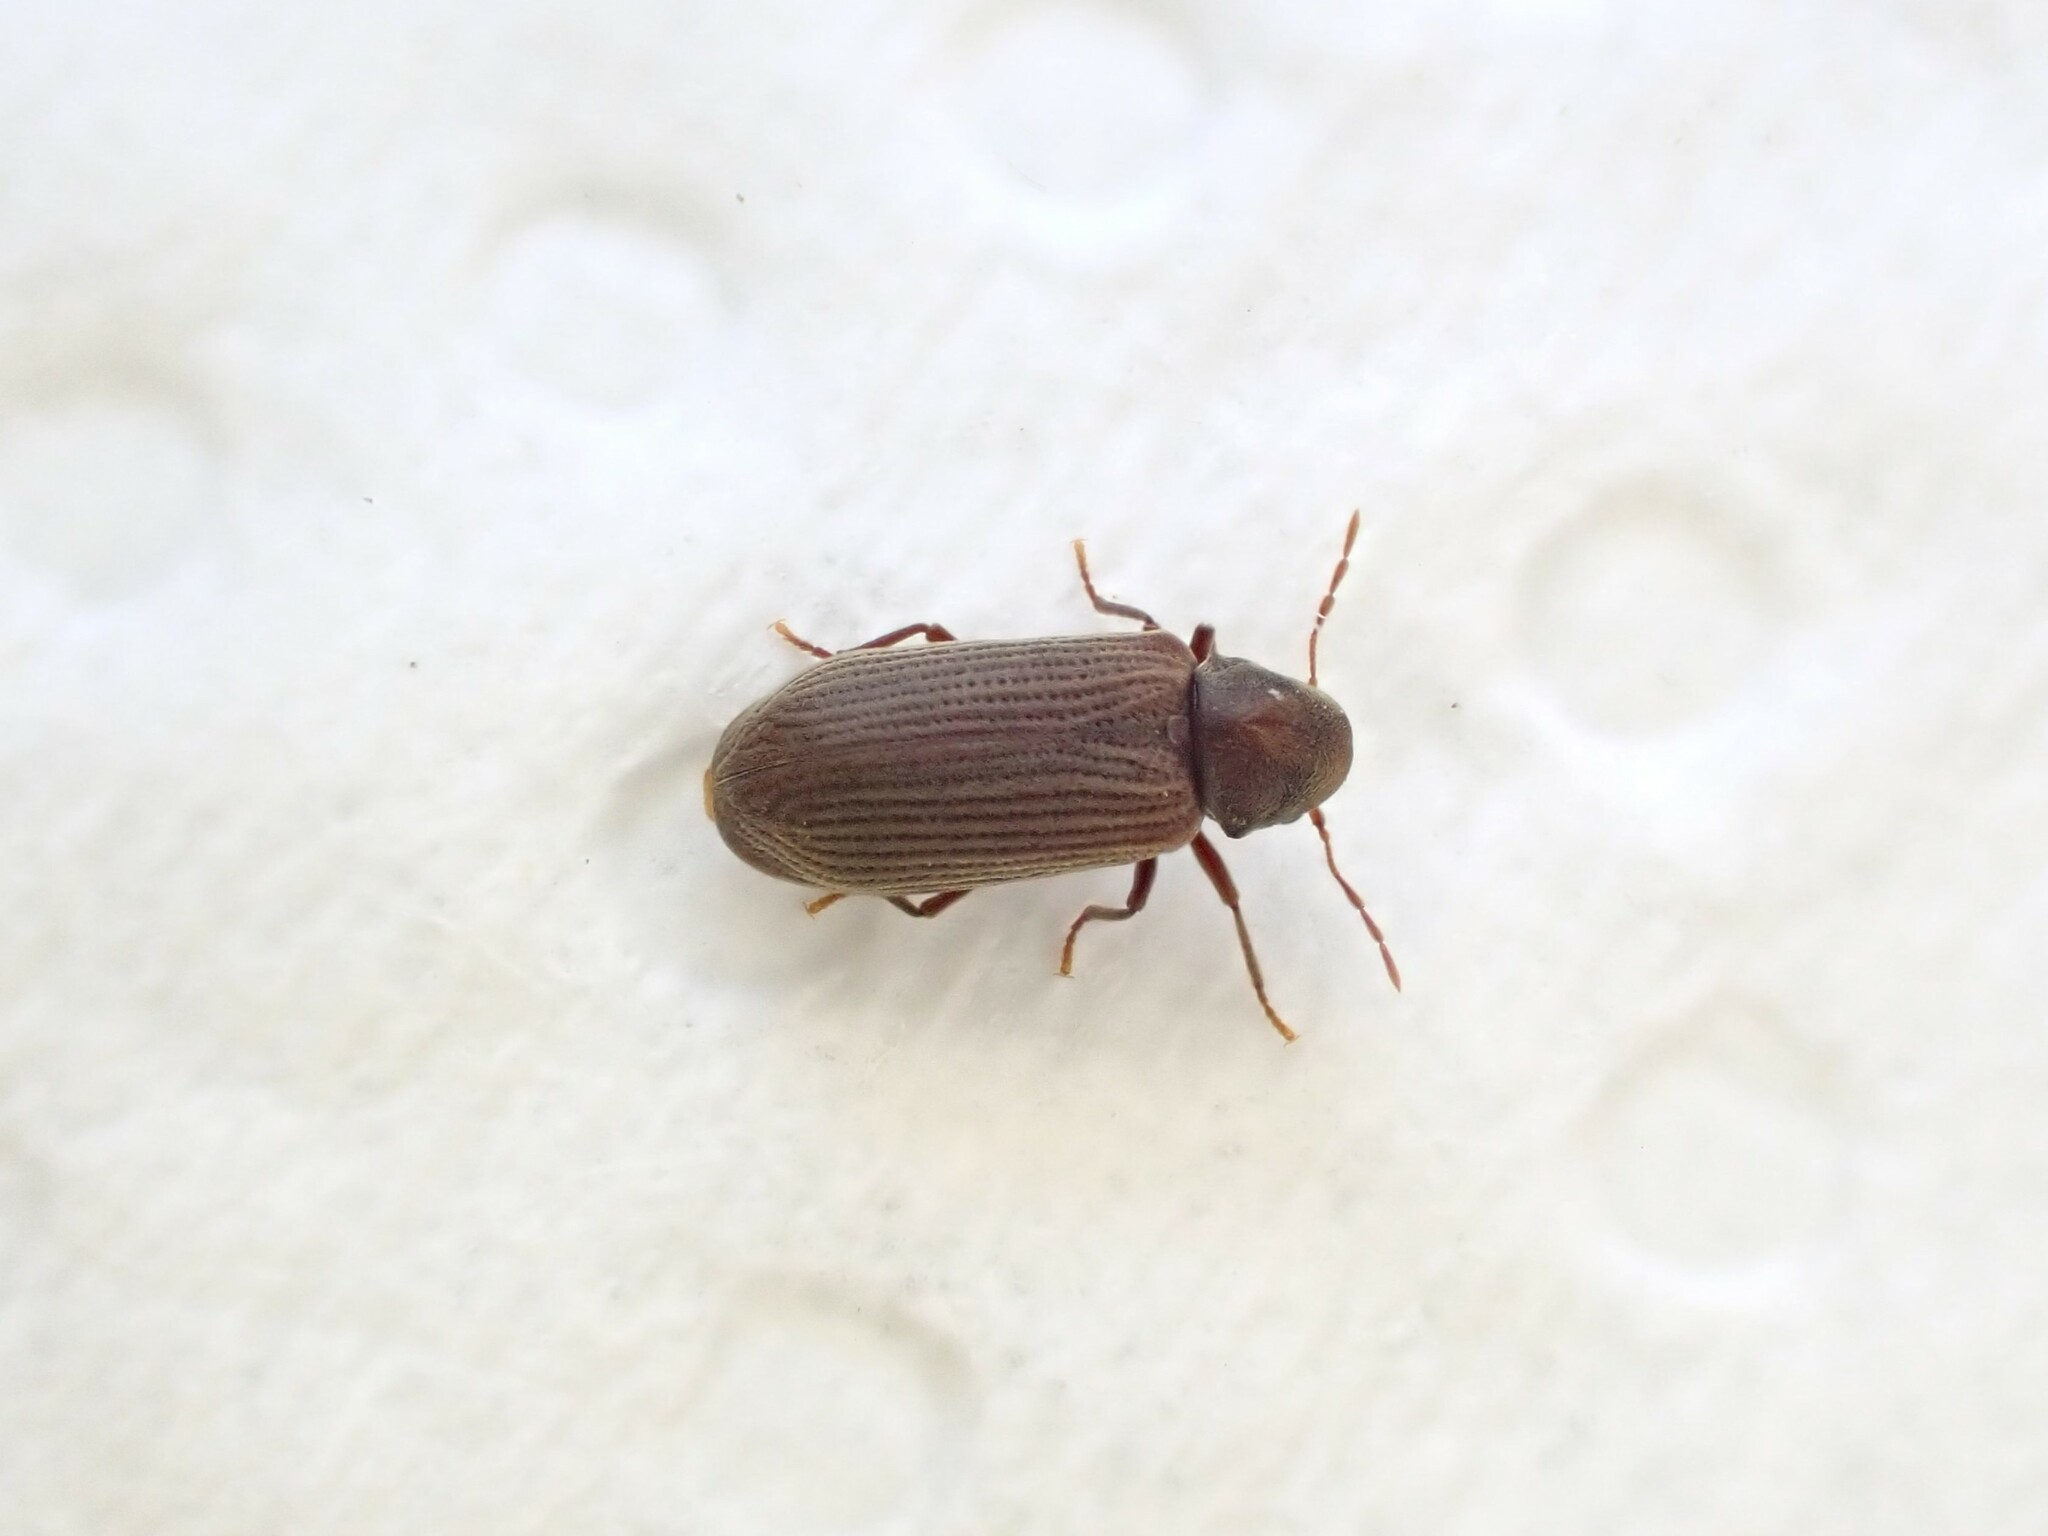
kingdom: Animalia
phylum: Arthropoda
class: Insecta
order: Coleoptera
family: Anobiidae
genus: Anobium
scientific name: Anobium punctatum
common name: Furniture beetle
